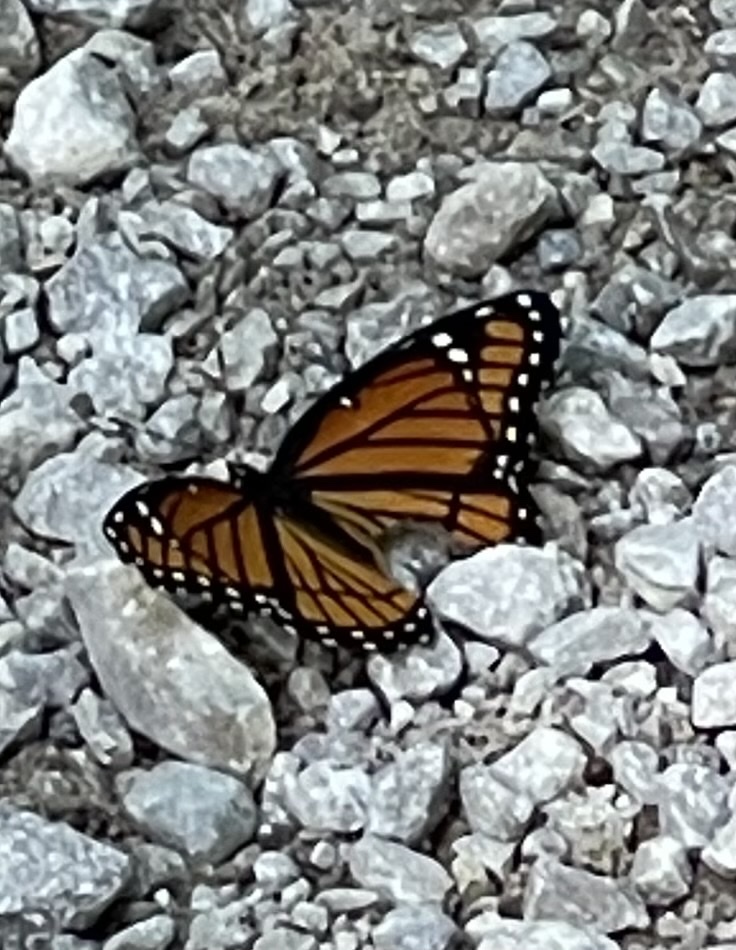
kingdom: Animalia
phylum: Arthropoda
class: Insecta
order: Lepidoptera
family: Nymphalidae
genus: Limenitis
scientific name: Limenitis archippus
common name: Viceroy
